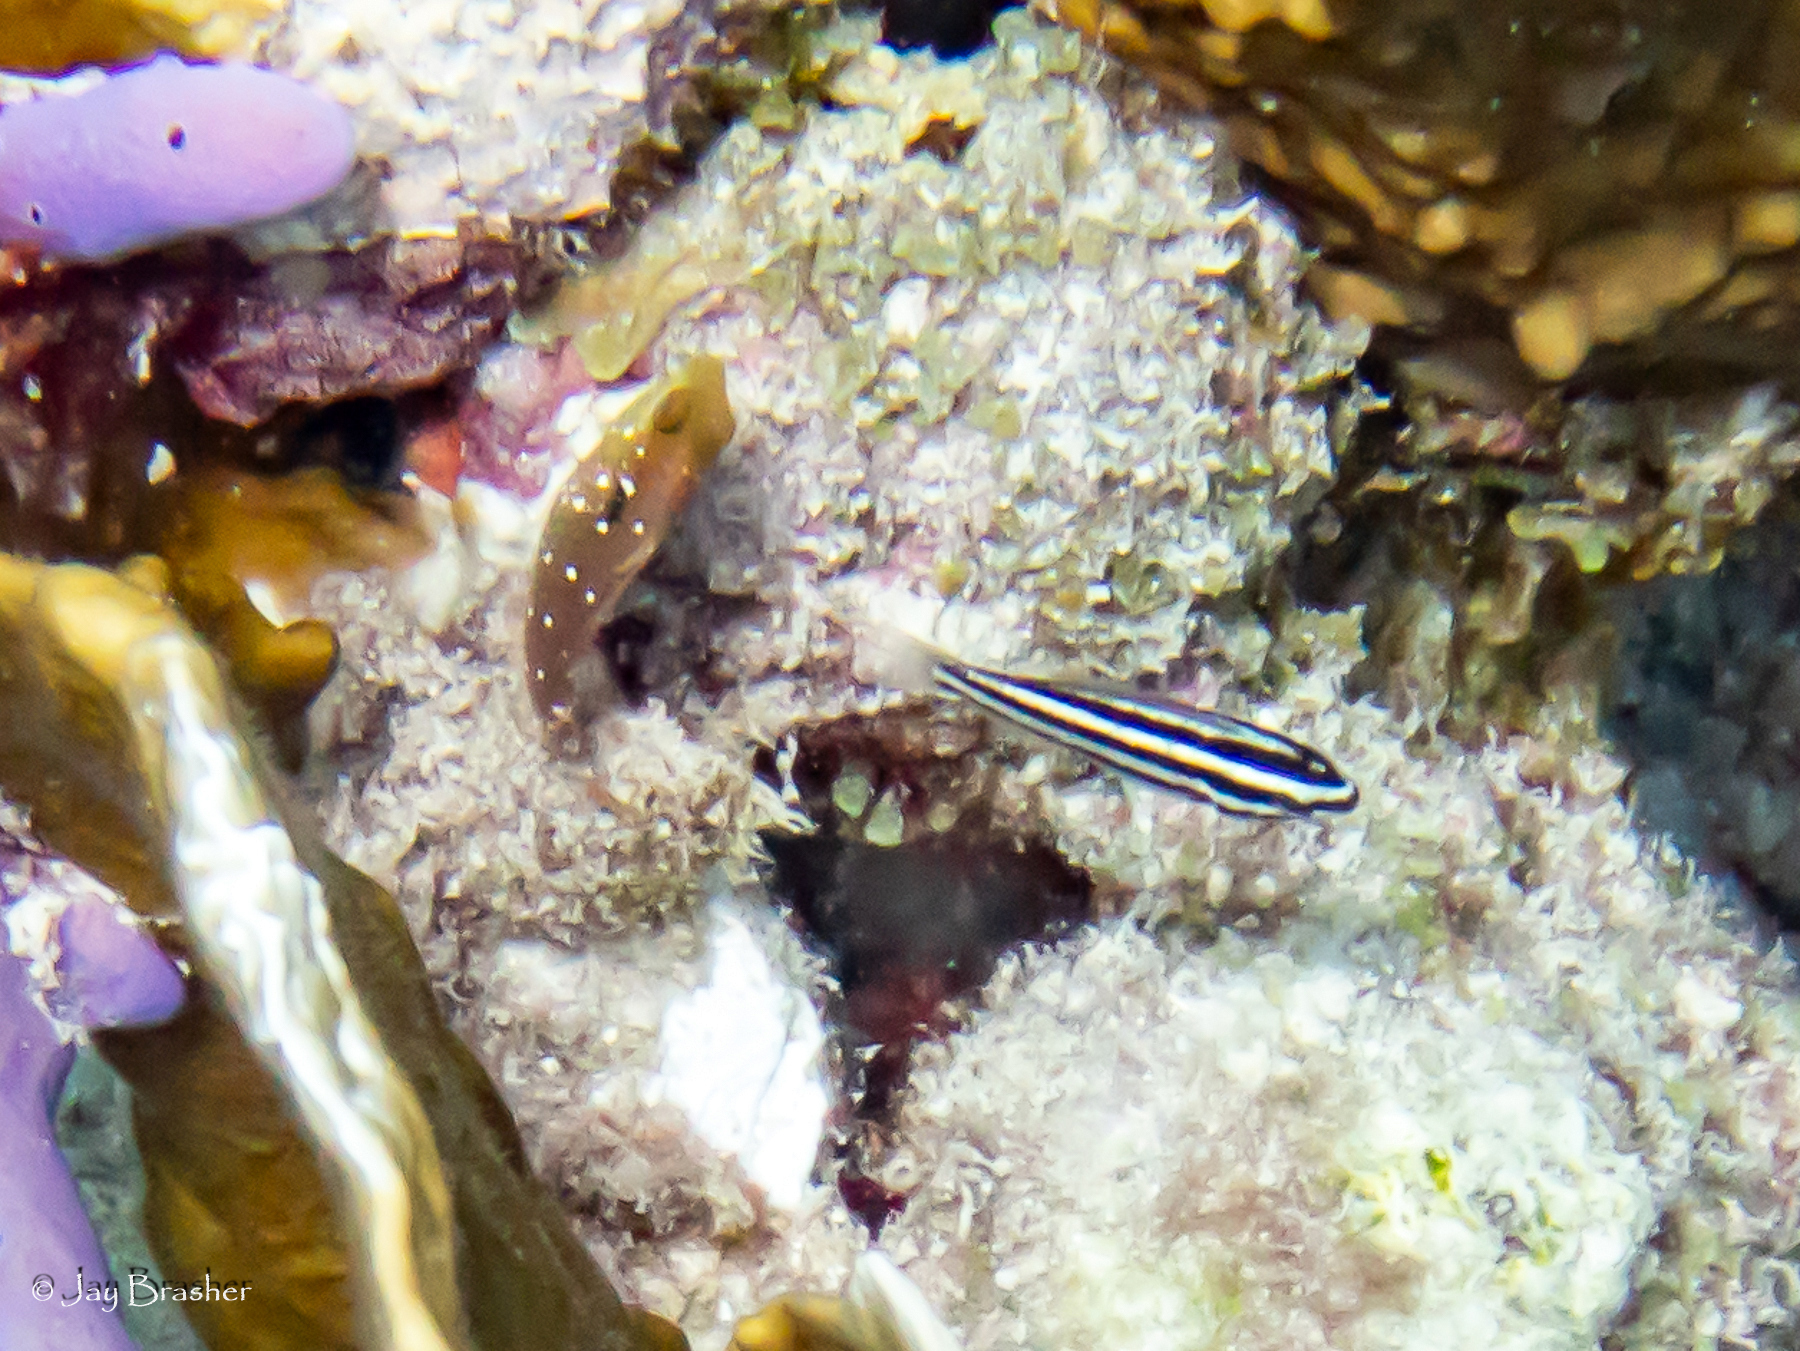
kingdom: Animalia
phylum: Chordata
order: Perciformes
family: Scaridae
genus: Scarus
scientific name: Scarus iseri
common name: Striped parrotfish
